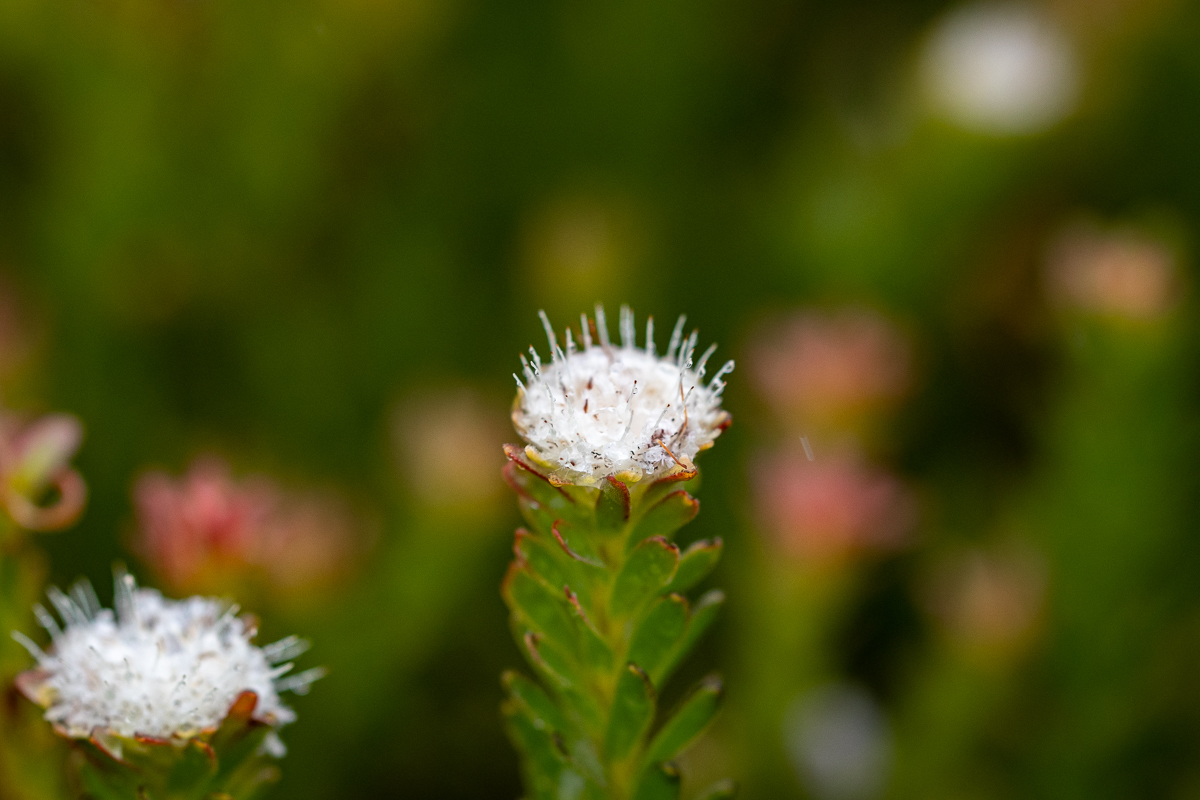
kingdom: Plantae
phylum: Tracheophyta
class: Magnoliopsida
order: Proteales
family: Proteaceae
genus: Diastella
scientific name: Diastella fraterna
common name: Palmiet silkypuff
